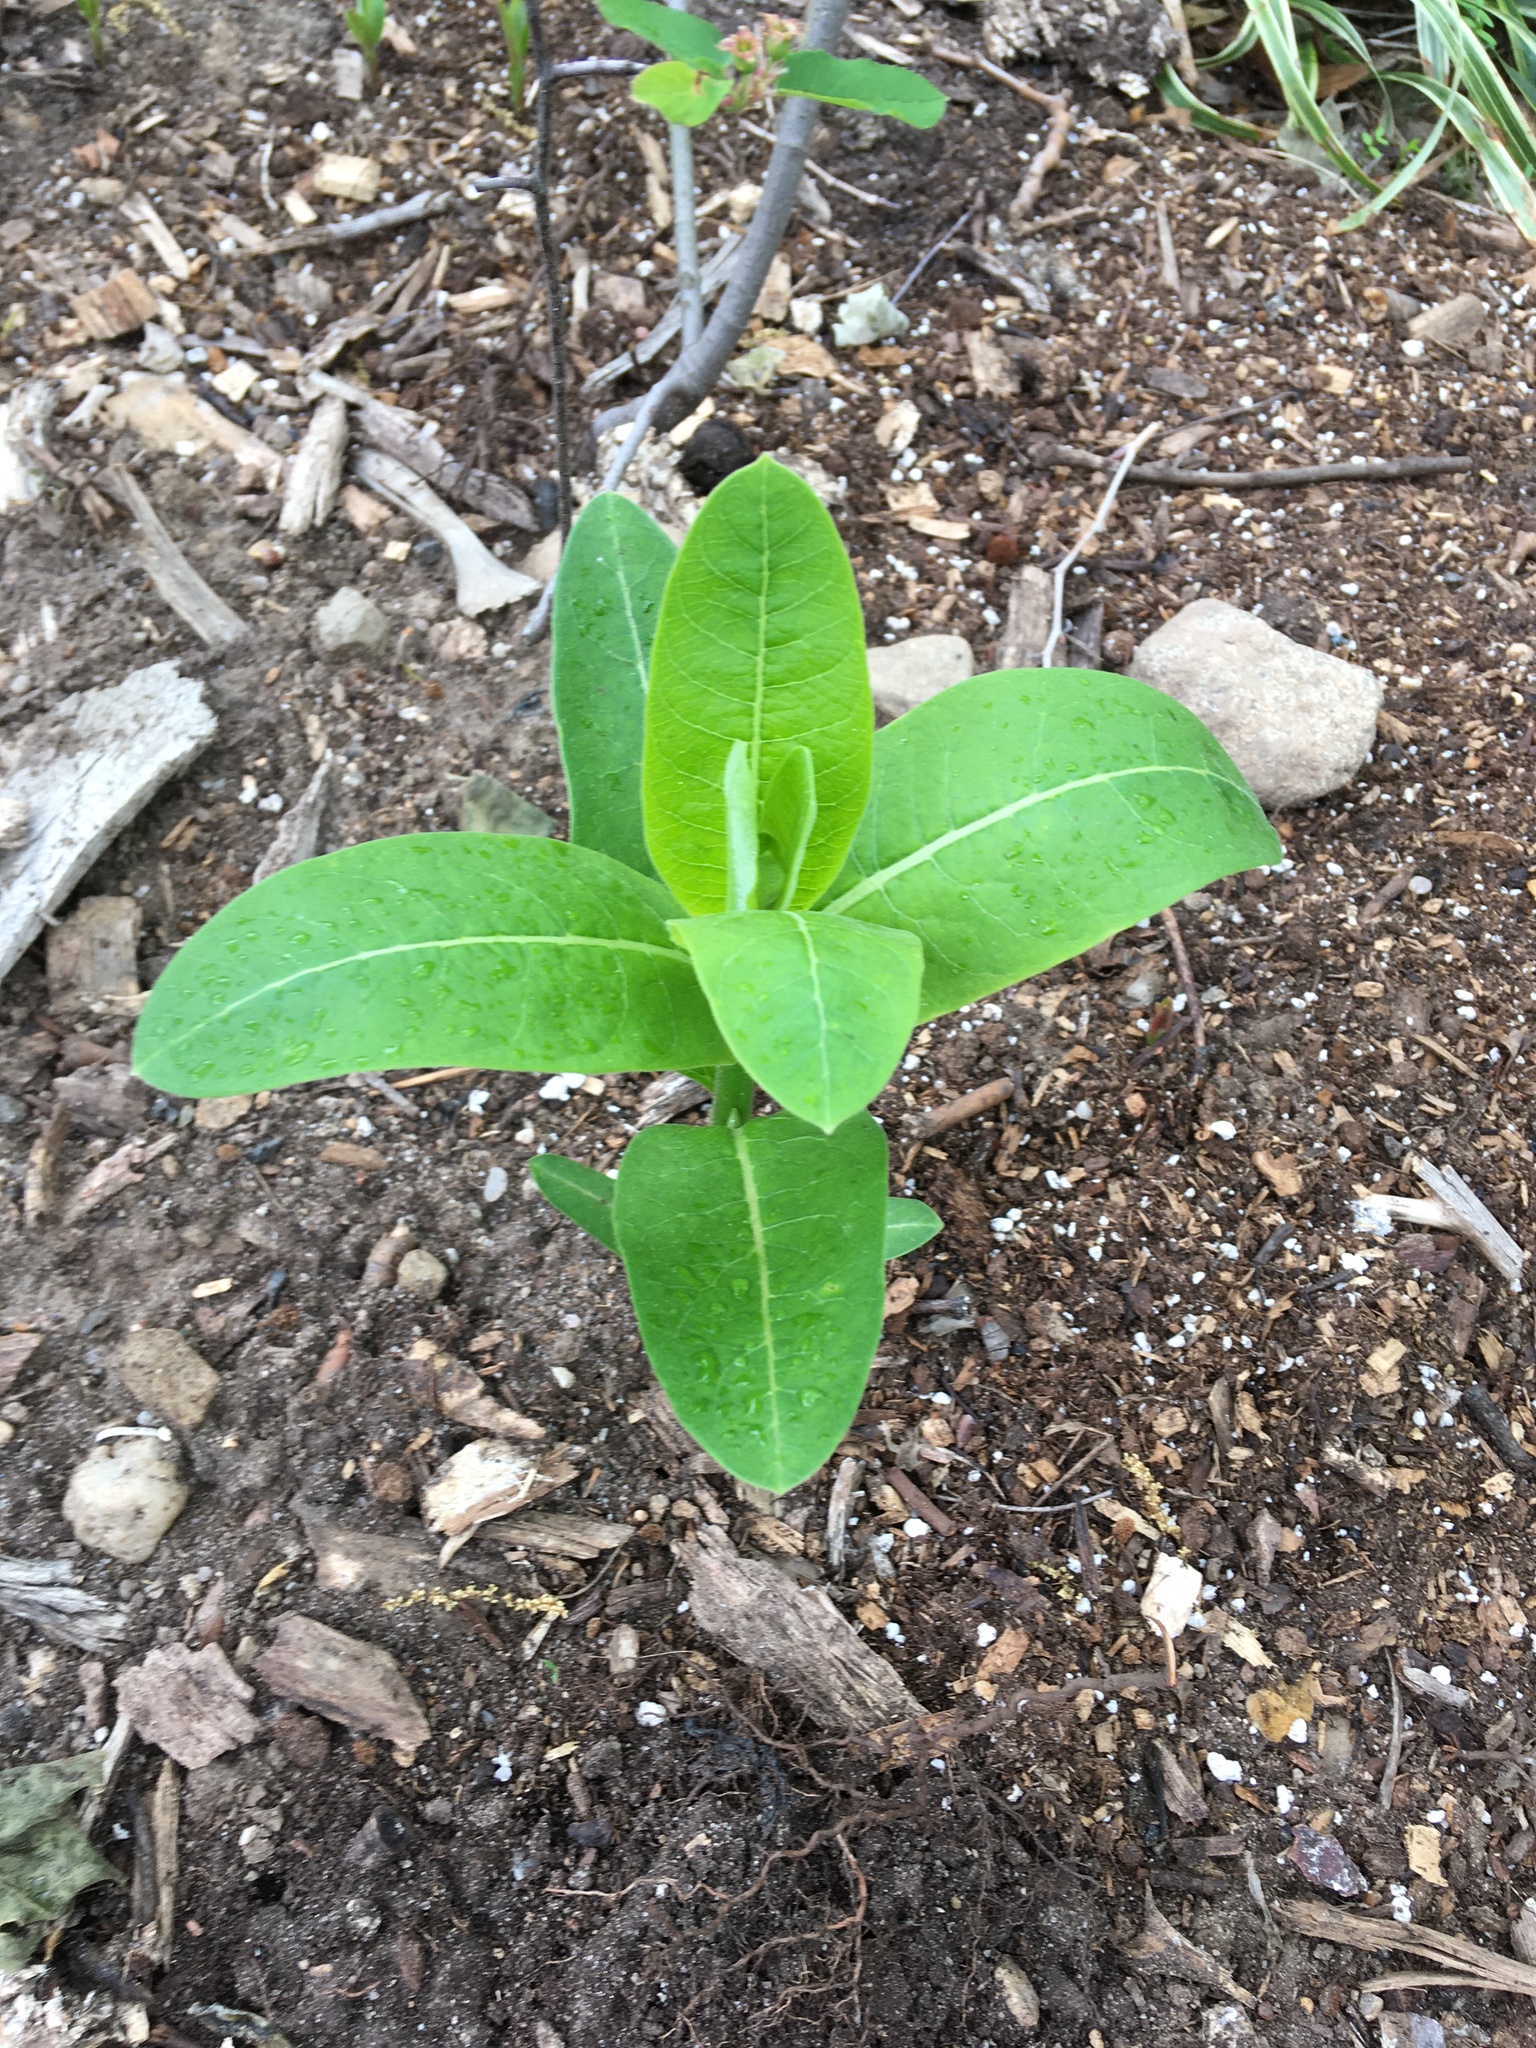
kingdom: Plantae
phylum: Tracheophyta
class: Magnoliopsida
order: Gentianales
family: Apocynaceae
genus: Asclepias
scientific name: Asclepias syriaca
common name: Common milkweed
